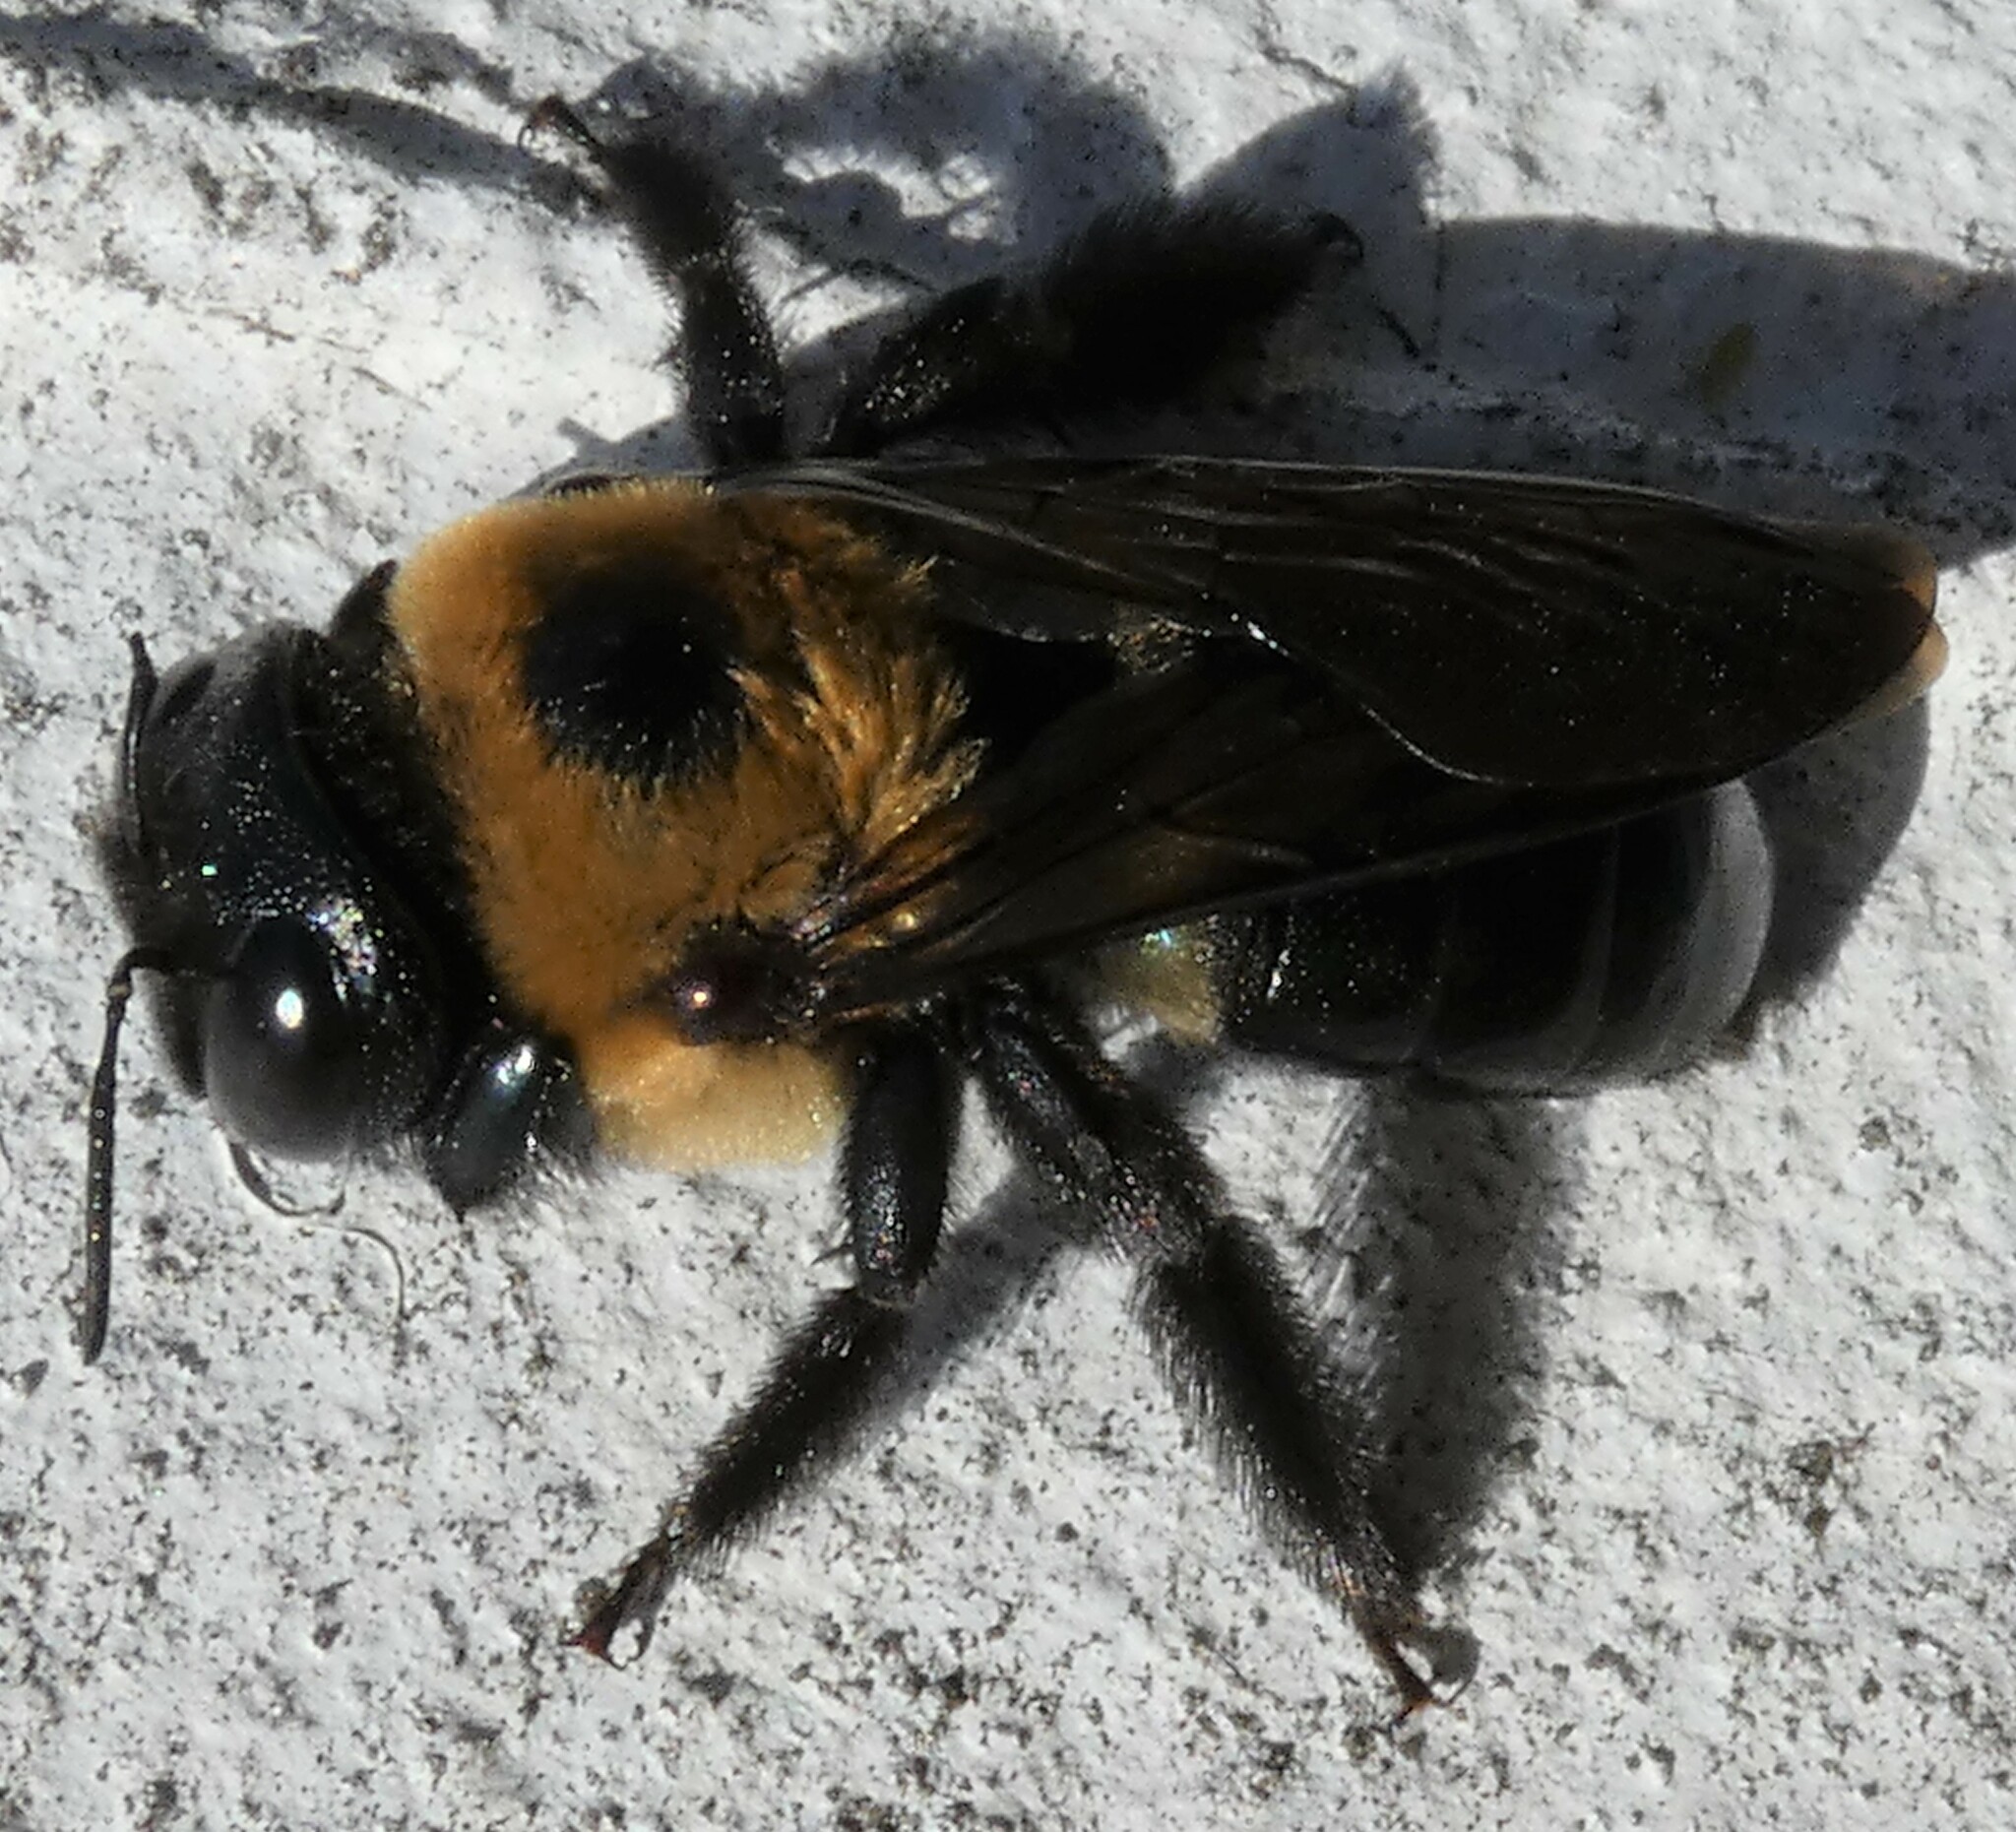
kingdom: Animalia
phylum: Arthropoda
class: Insecta
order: Hymenoptera
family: Apidae
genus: Xylocopa
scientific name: Xylocopa virginica
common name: Carpenter bee
